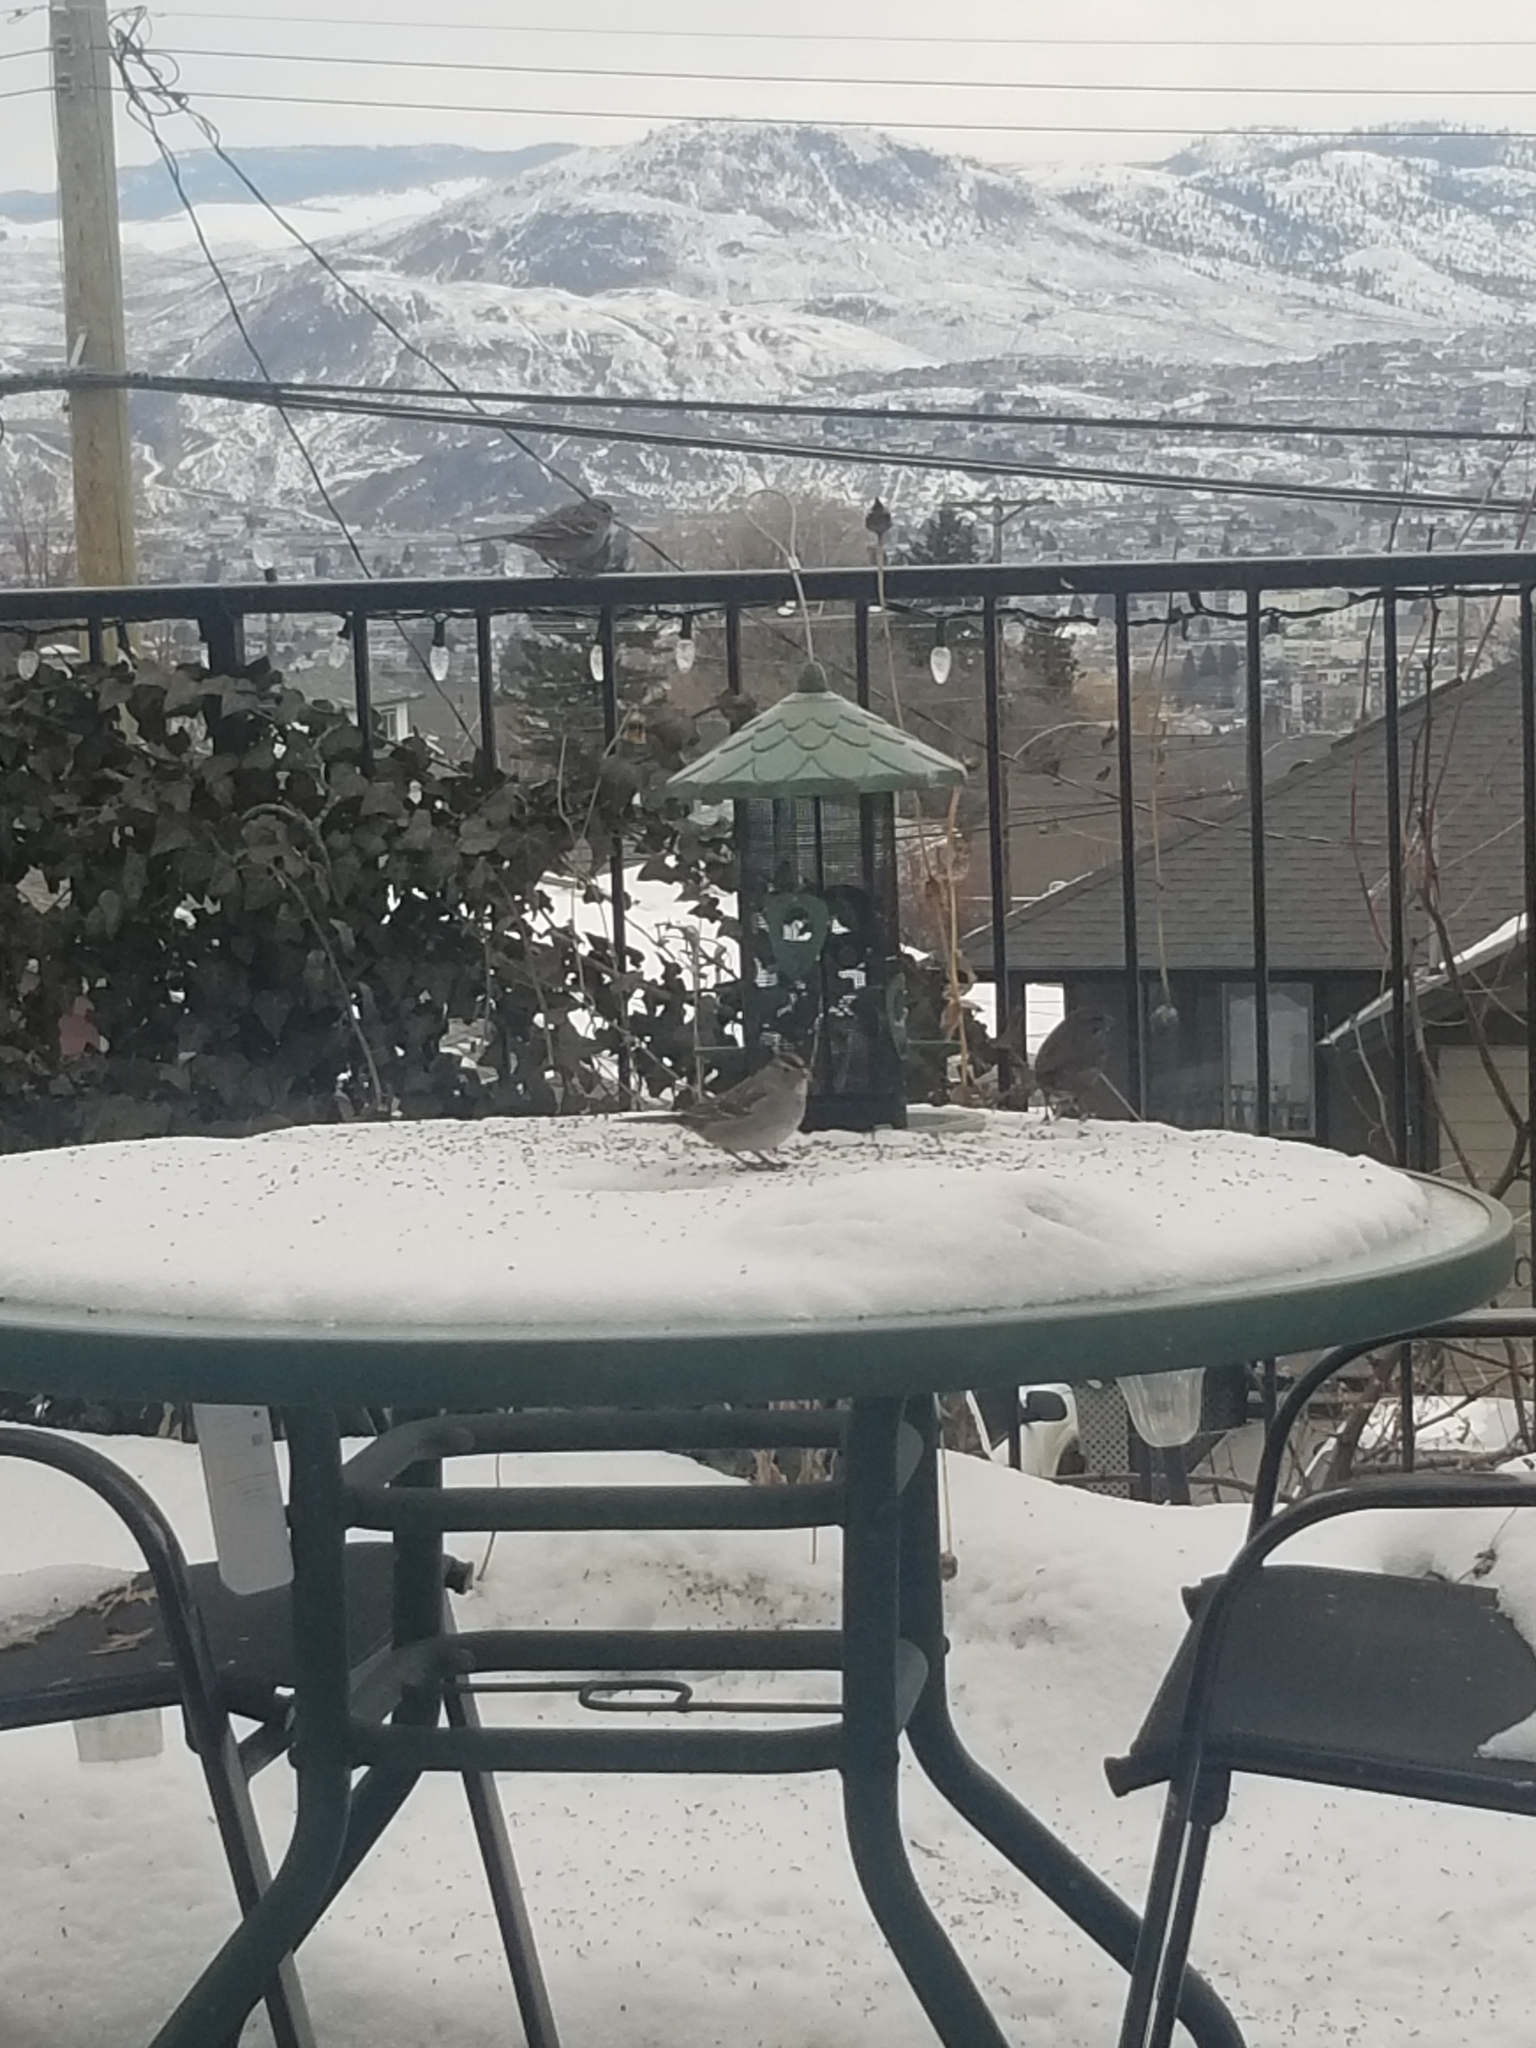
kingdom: Animalia
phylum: Chordata
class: Aves
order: Passeriformes
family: Passerellidae
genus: Zonotrichia
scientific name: Zonotrichia leucophrys
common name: White-crowned sparrow
